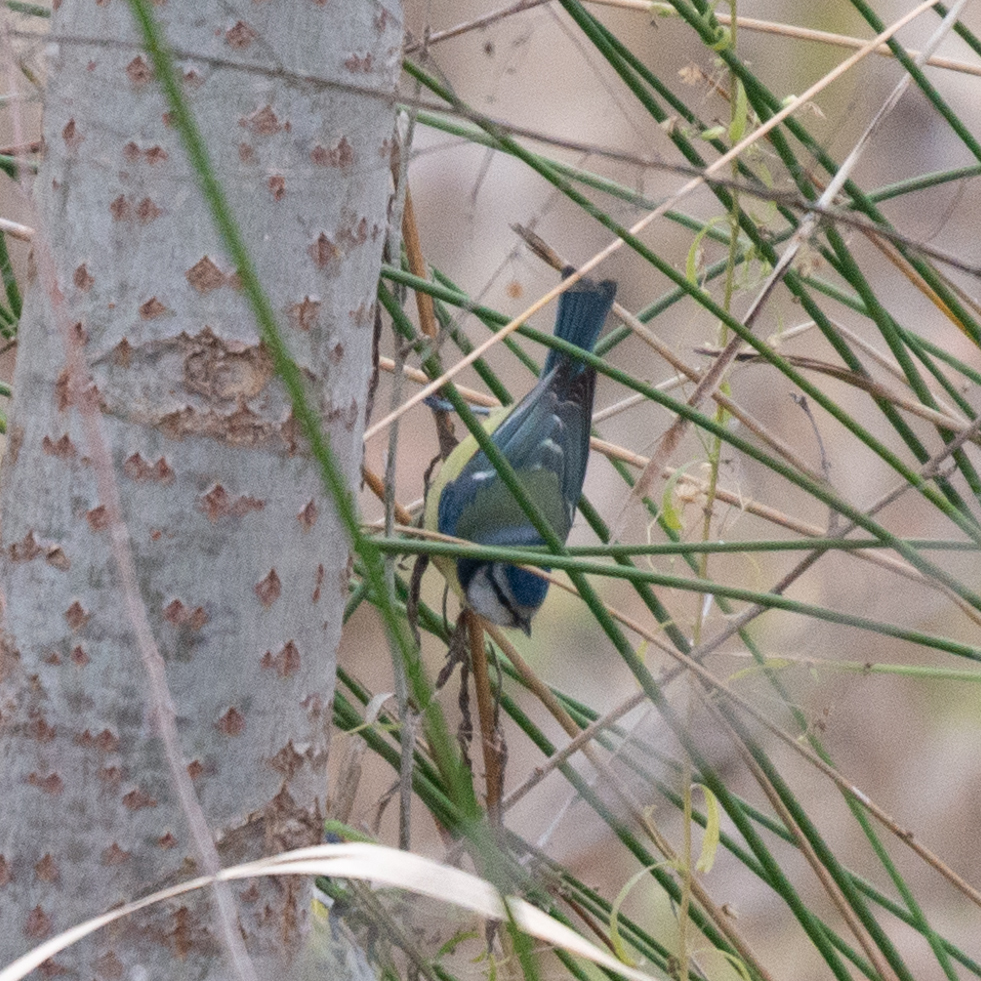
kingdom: Animalia
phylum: Chordata
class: Aves
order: Passeriformes
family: Paridae
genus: Cyanistes
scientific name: Cyanistes caeruleus
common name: Eurasian blue tit
